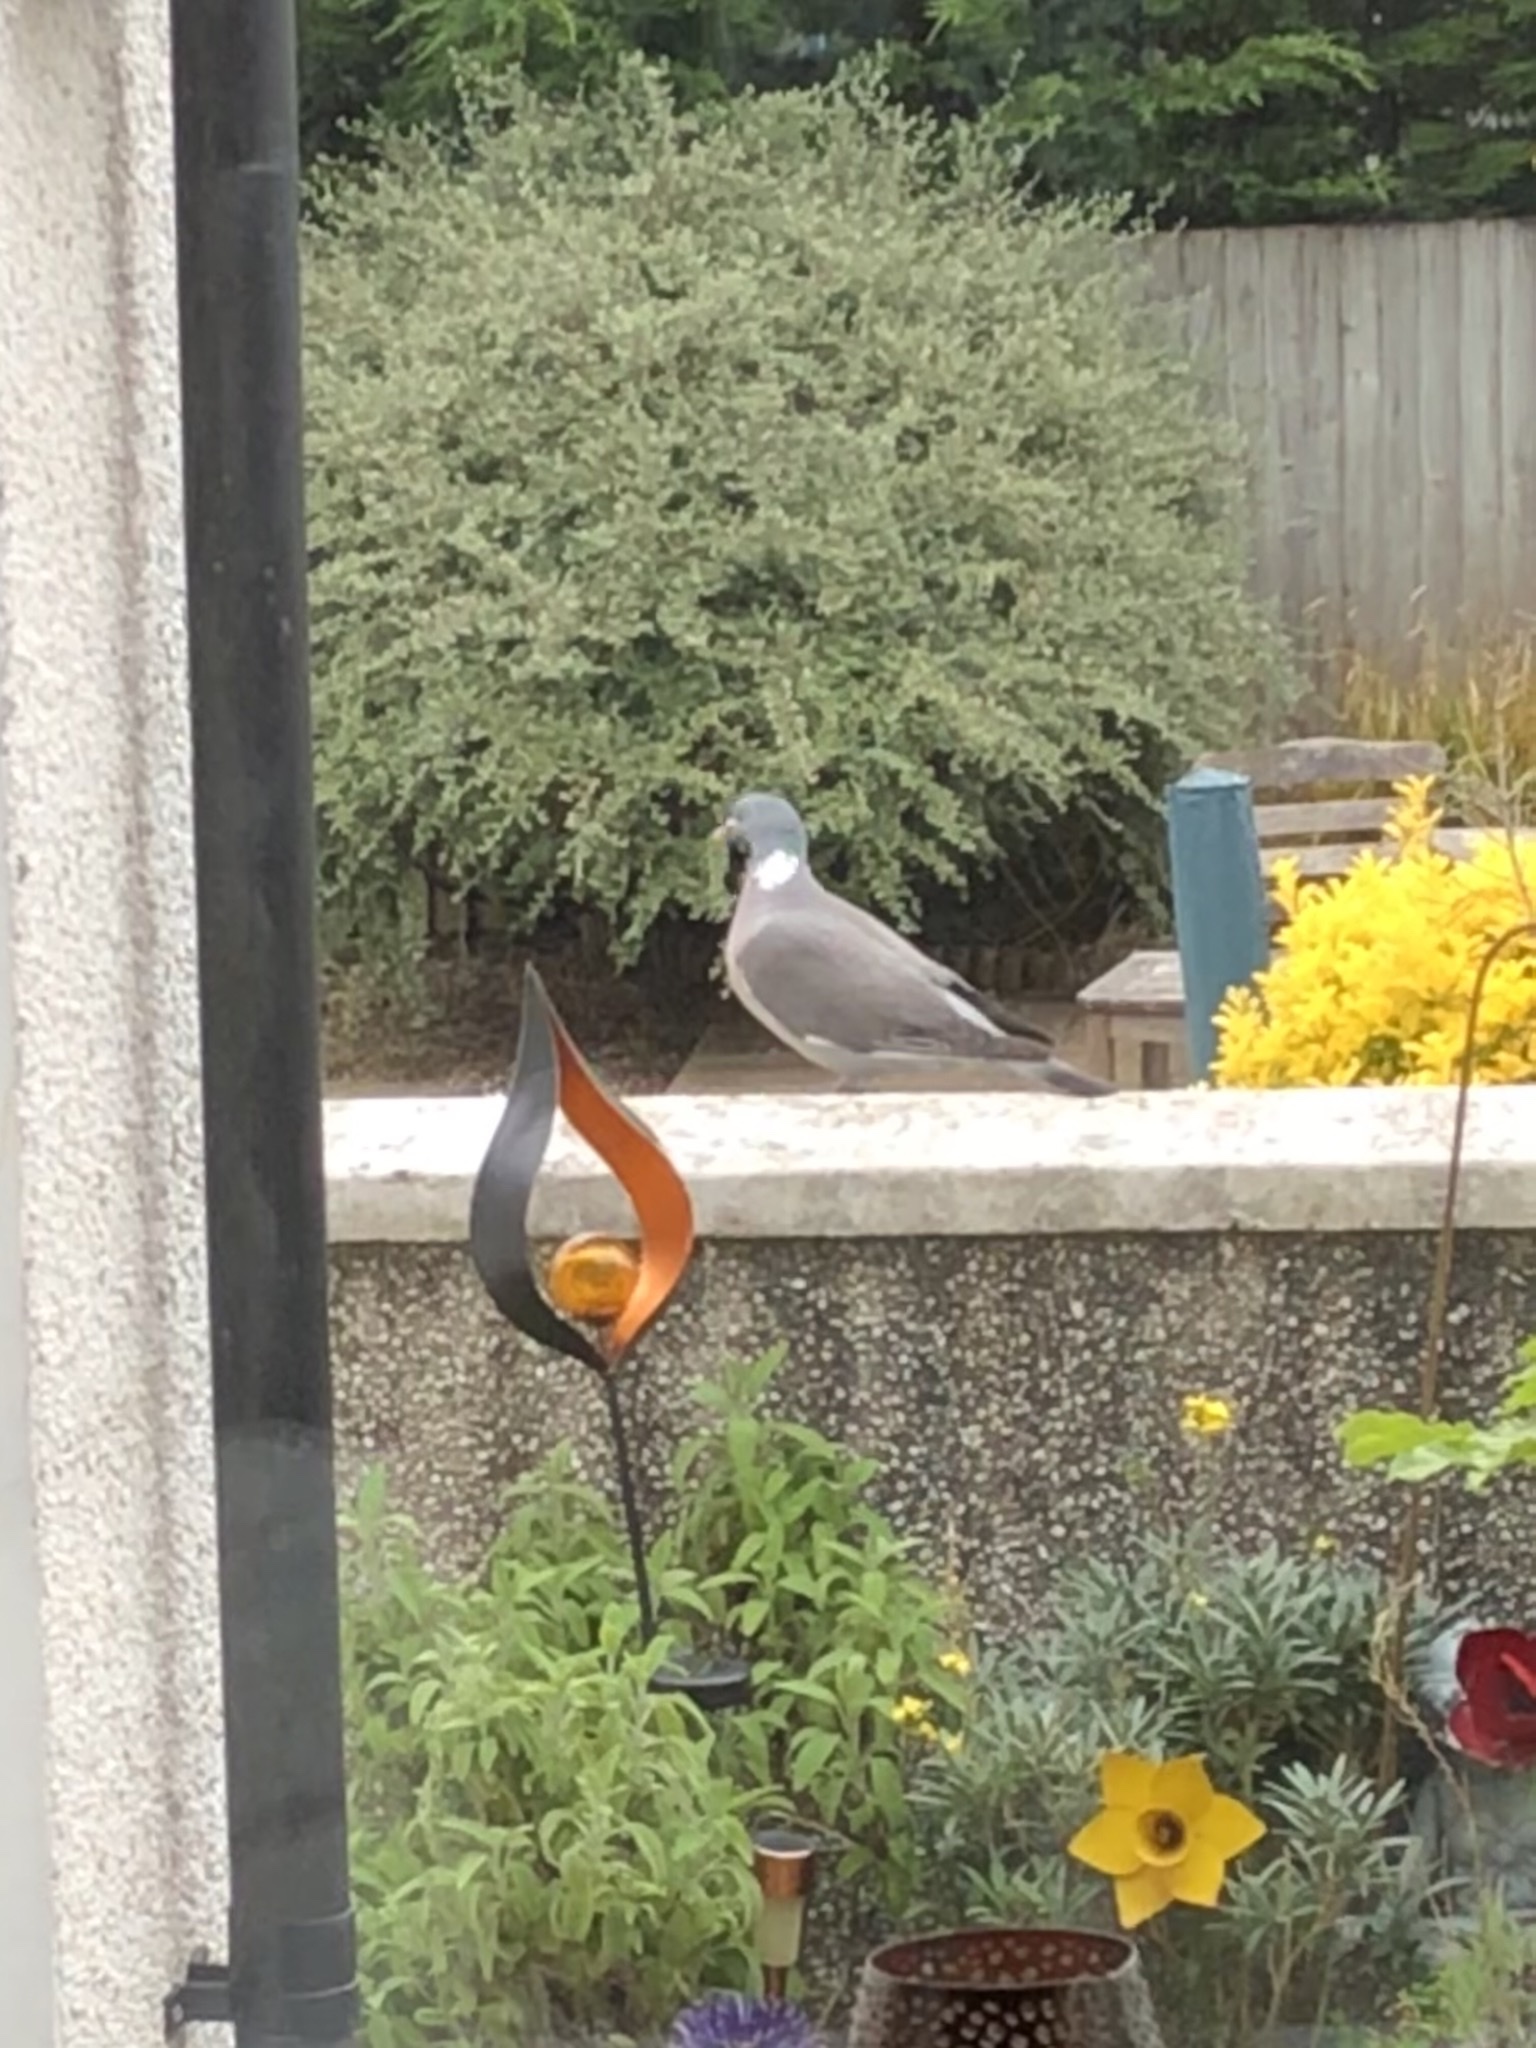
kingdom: Animalia
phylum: Chordata
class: Aves
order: Columbiformes
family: Columbidae
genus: Columba
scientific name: Columba palumbus
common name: Common wood pigeon
